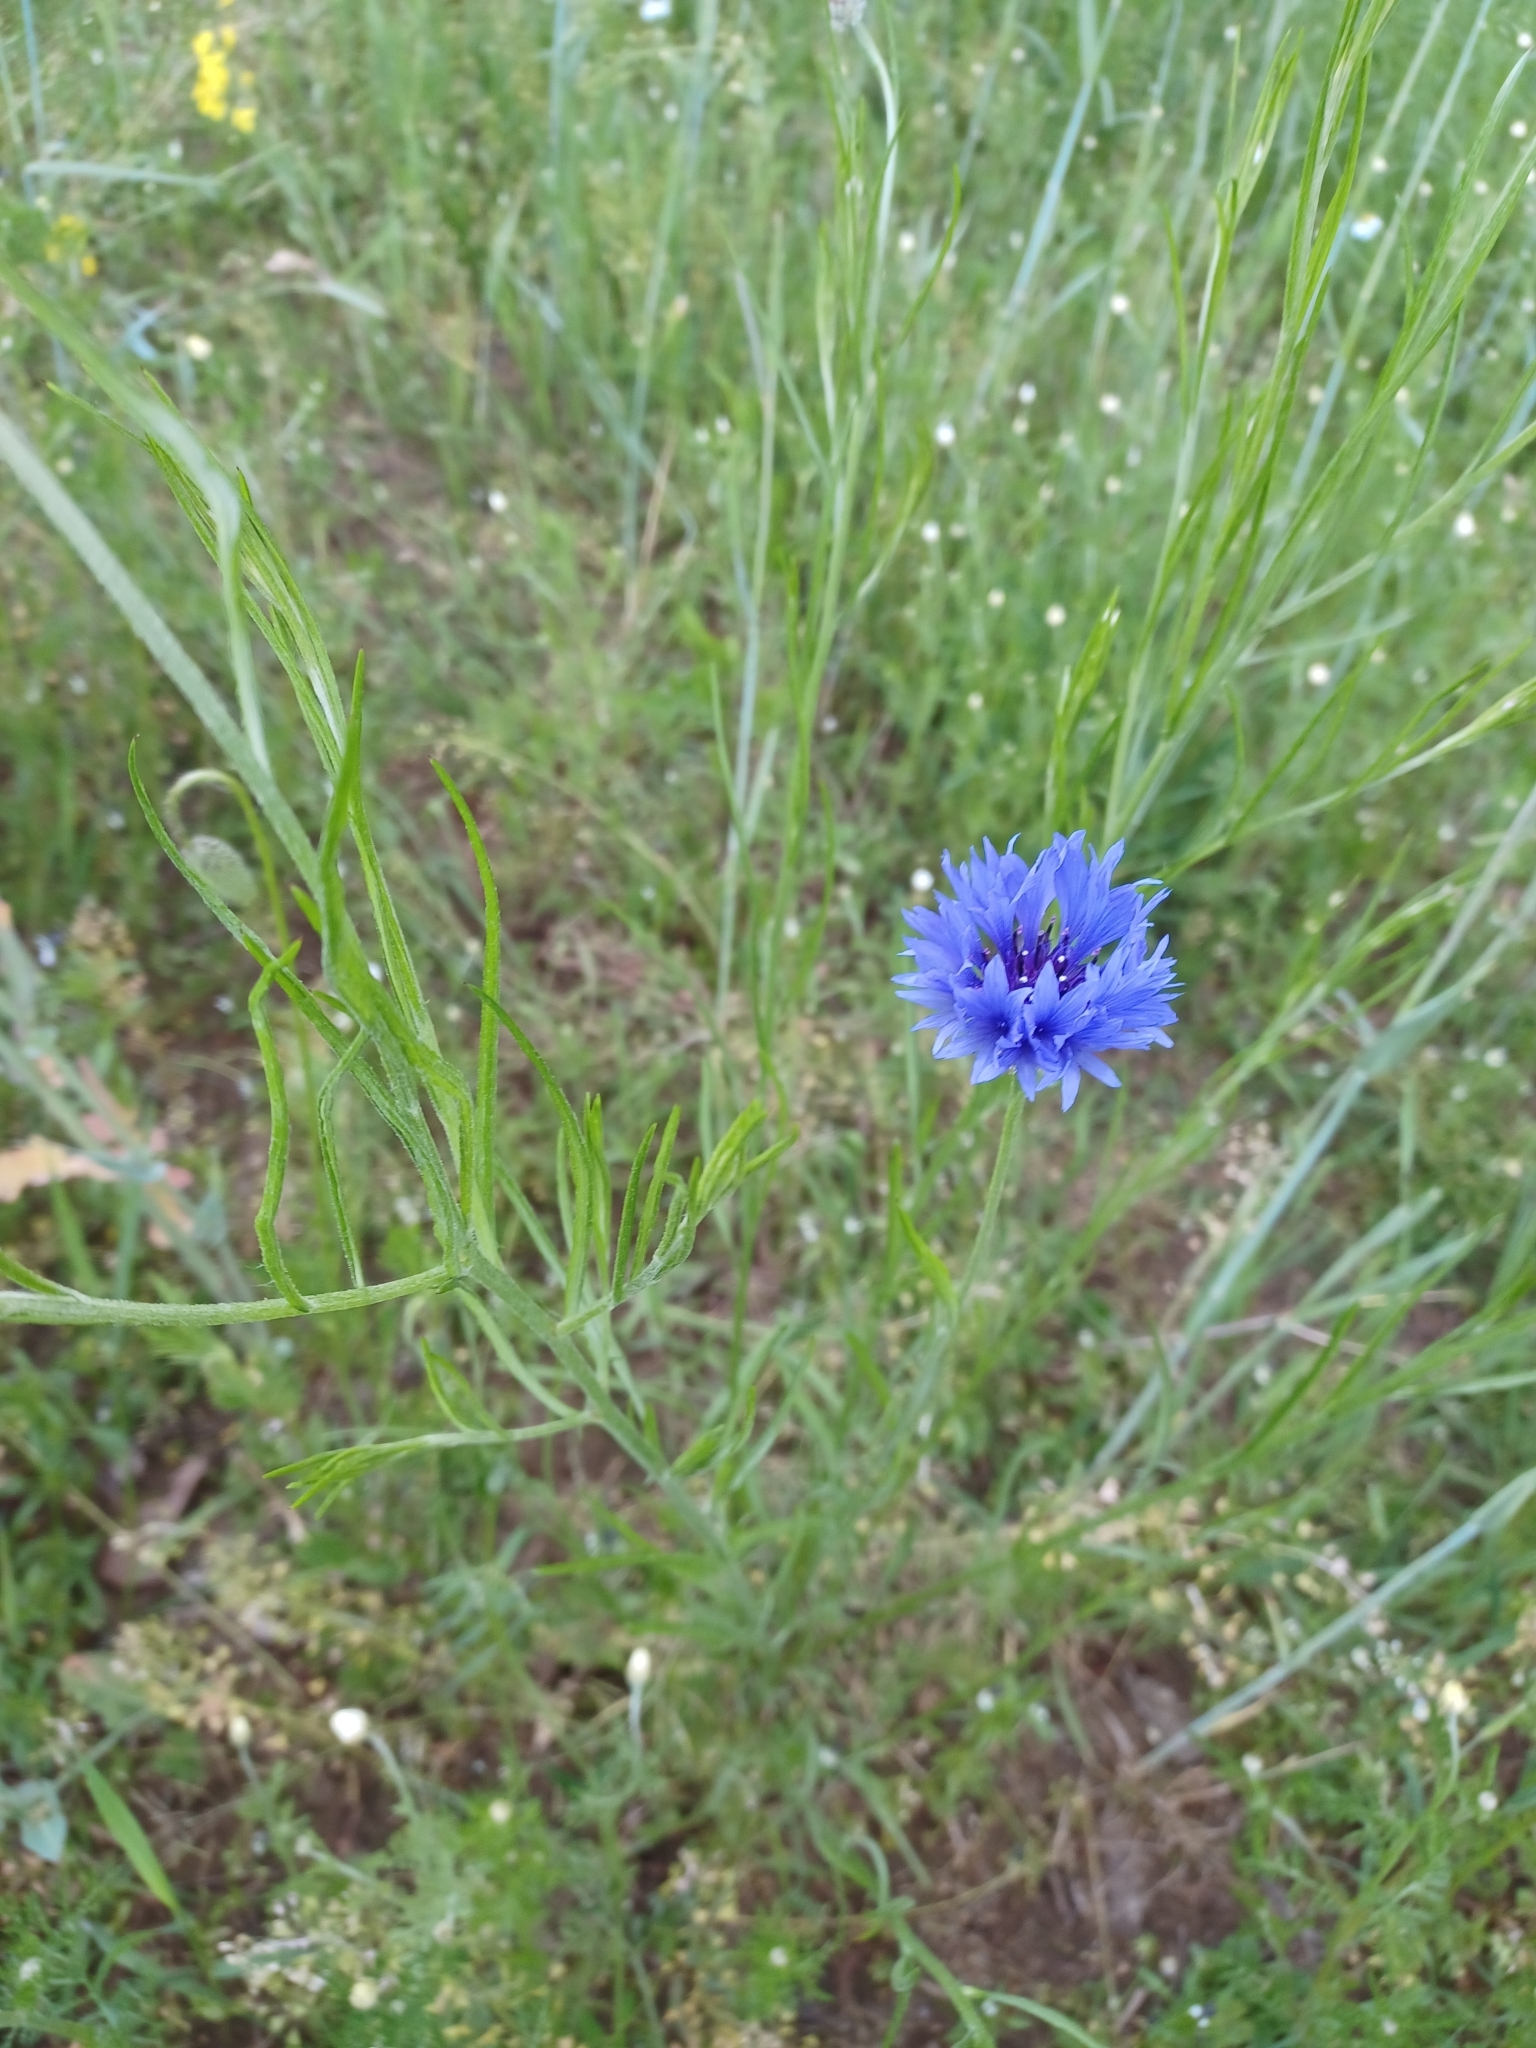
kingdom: Plantae
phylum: Tracheophyta
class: Magnoliopsida
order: Asterales
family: Asteraceae
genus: Centaurea
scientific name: Centaurea cyanus
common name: Cornflower
